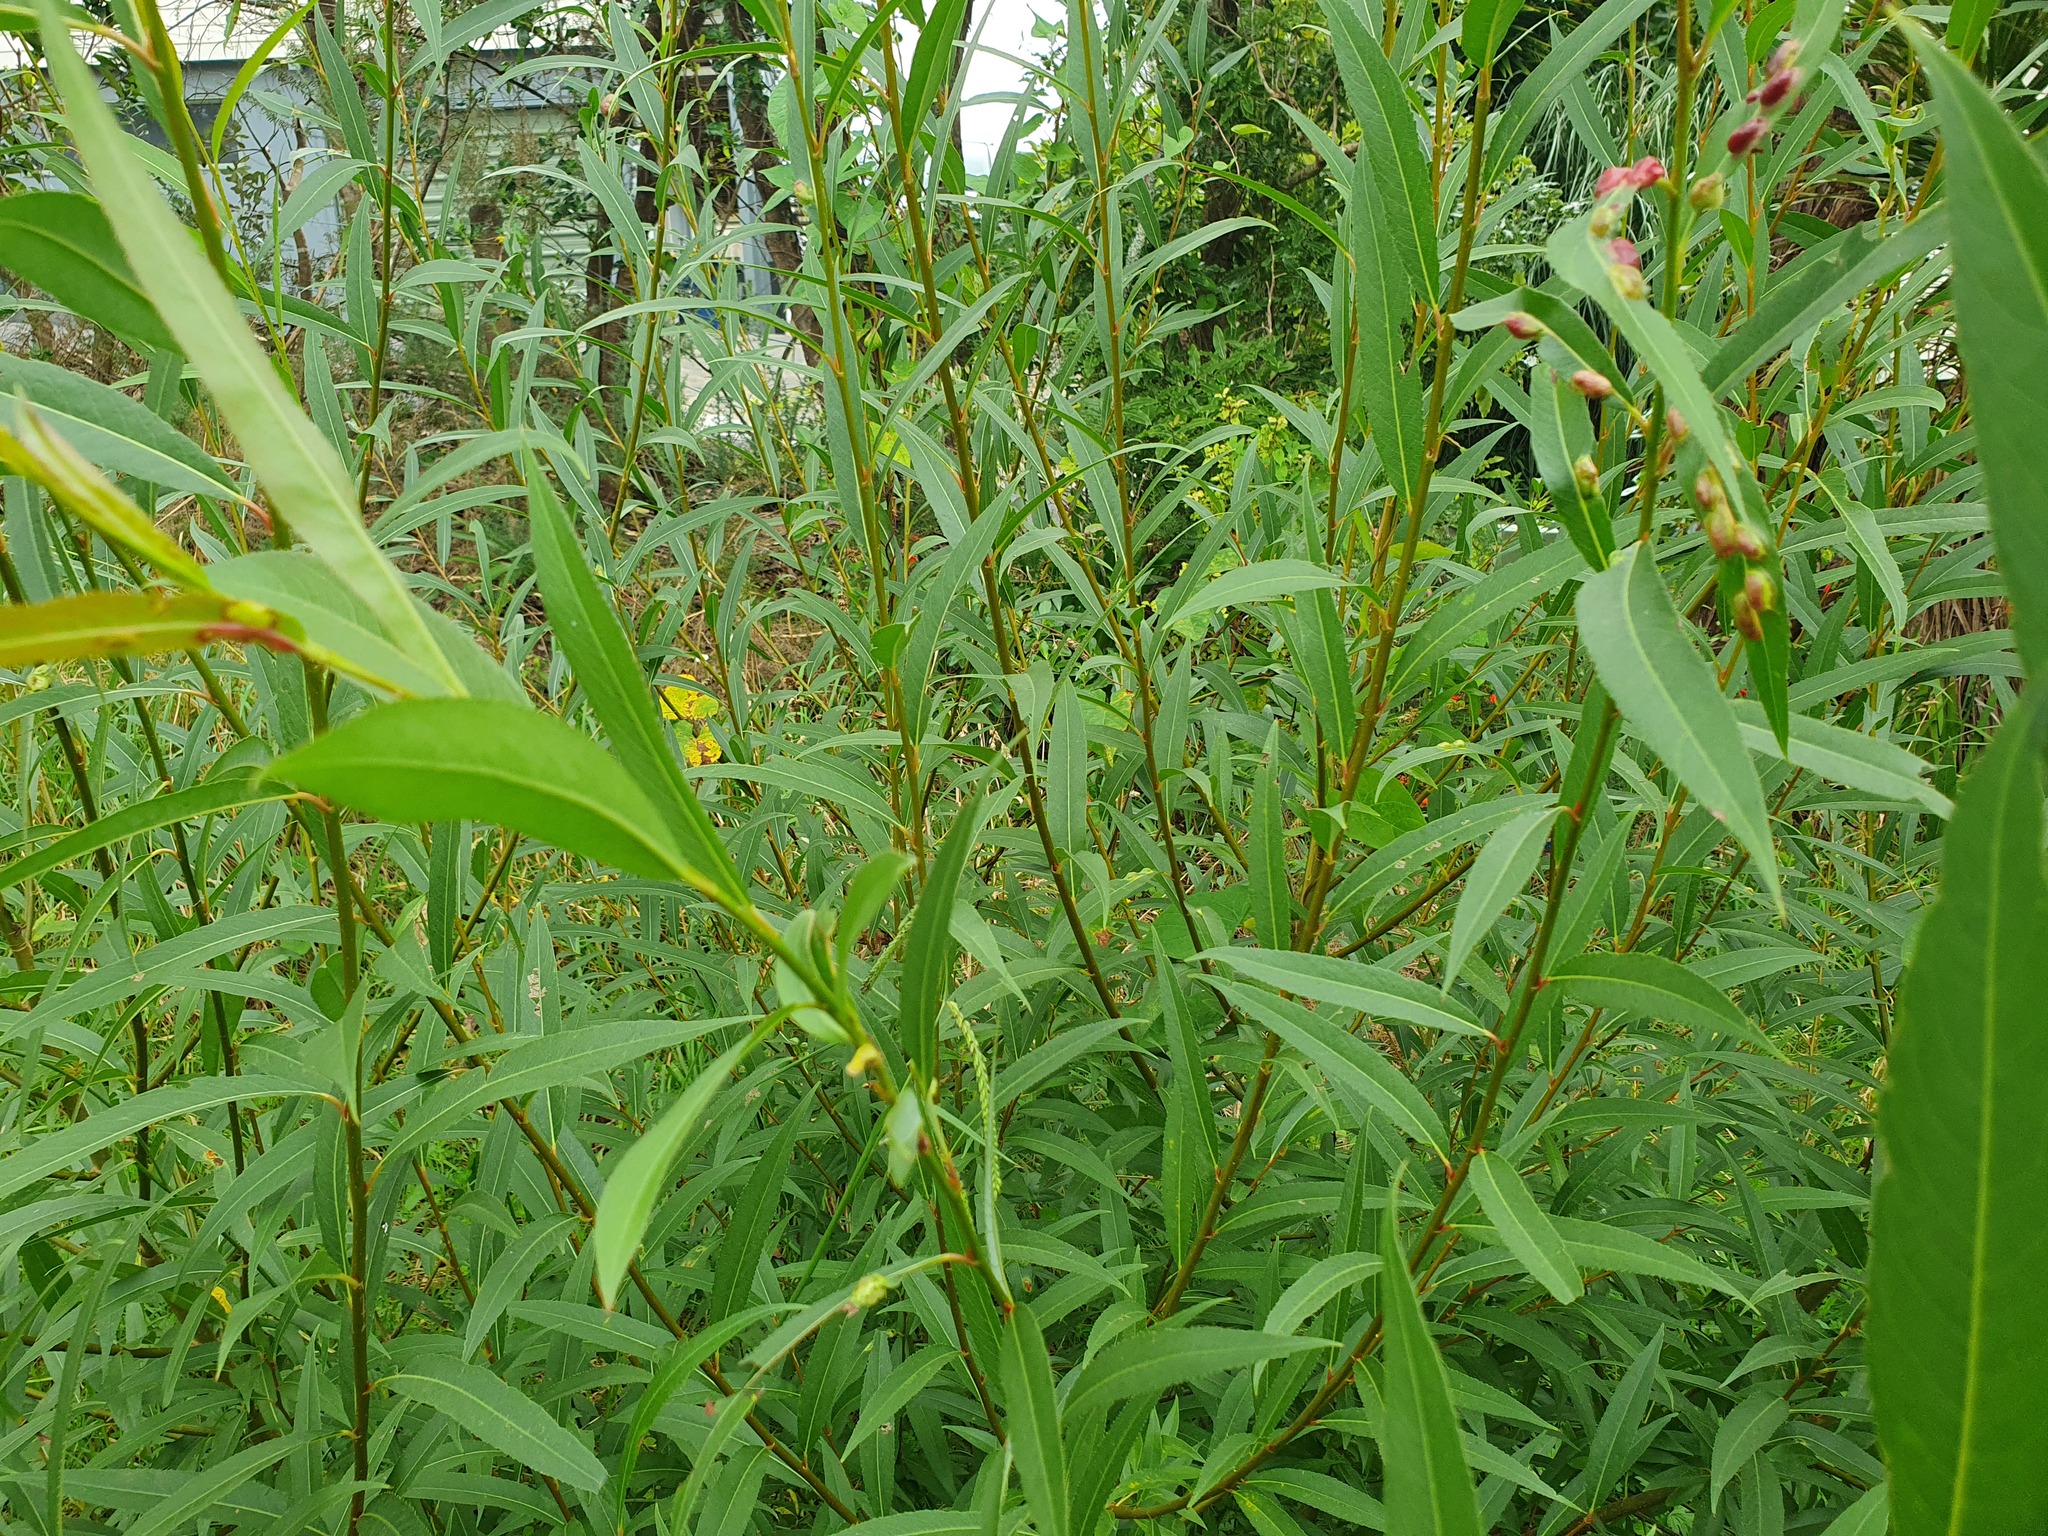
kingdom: Plantae
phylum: Tracheophyta
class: Magnoliopsida
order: Malpighiales
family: Salicaceae
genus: Salix
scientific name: Salix fragilis
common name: Crack willow
